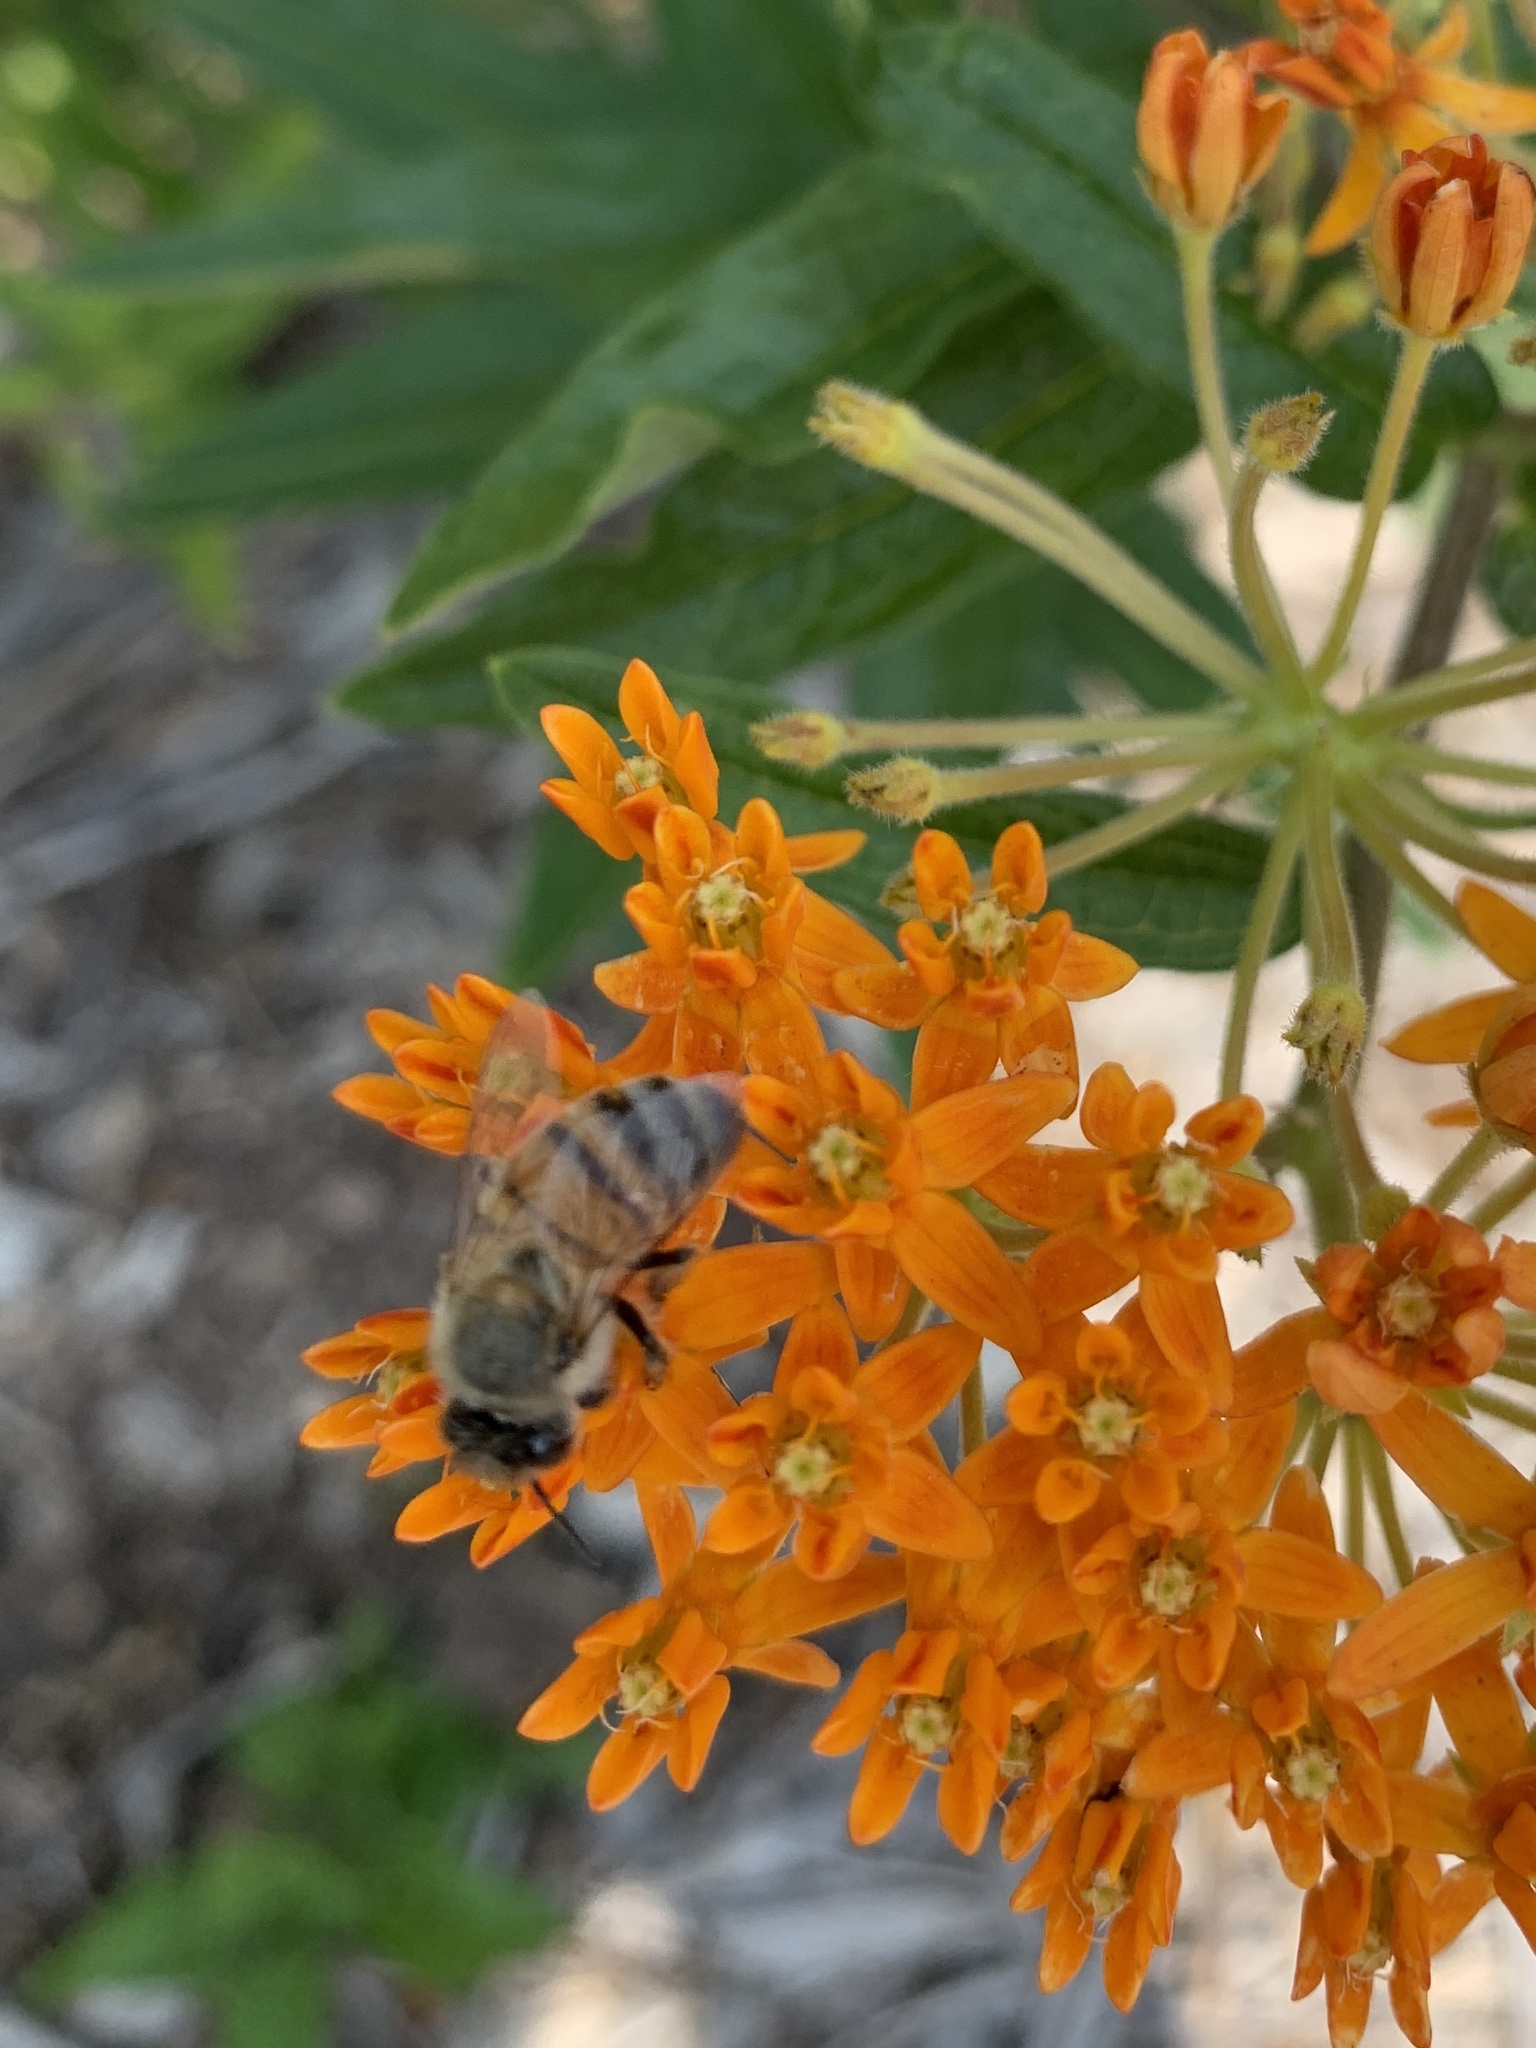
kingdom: Animalia
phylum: Arthropoda
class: Insecta
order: Hymenoptera
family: Apidae
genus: Apis
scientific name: Apis mellifera
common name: Honey bee
